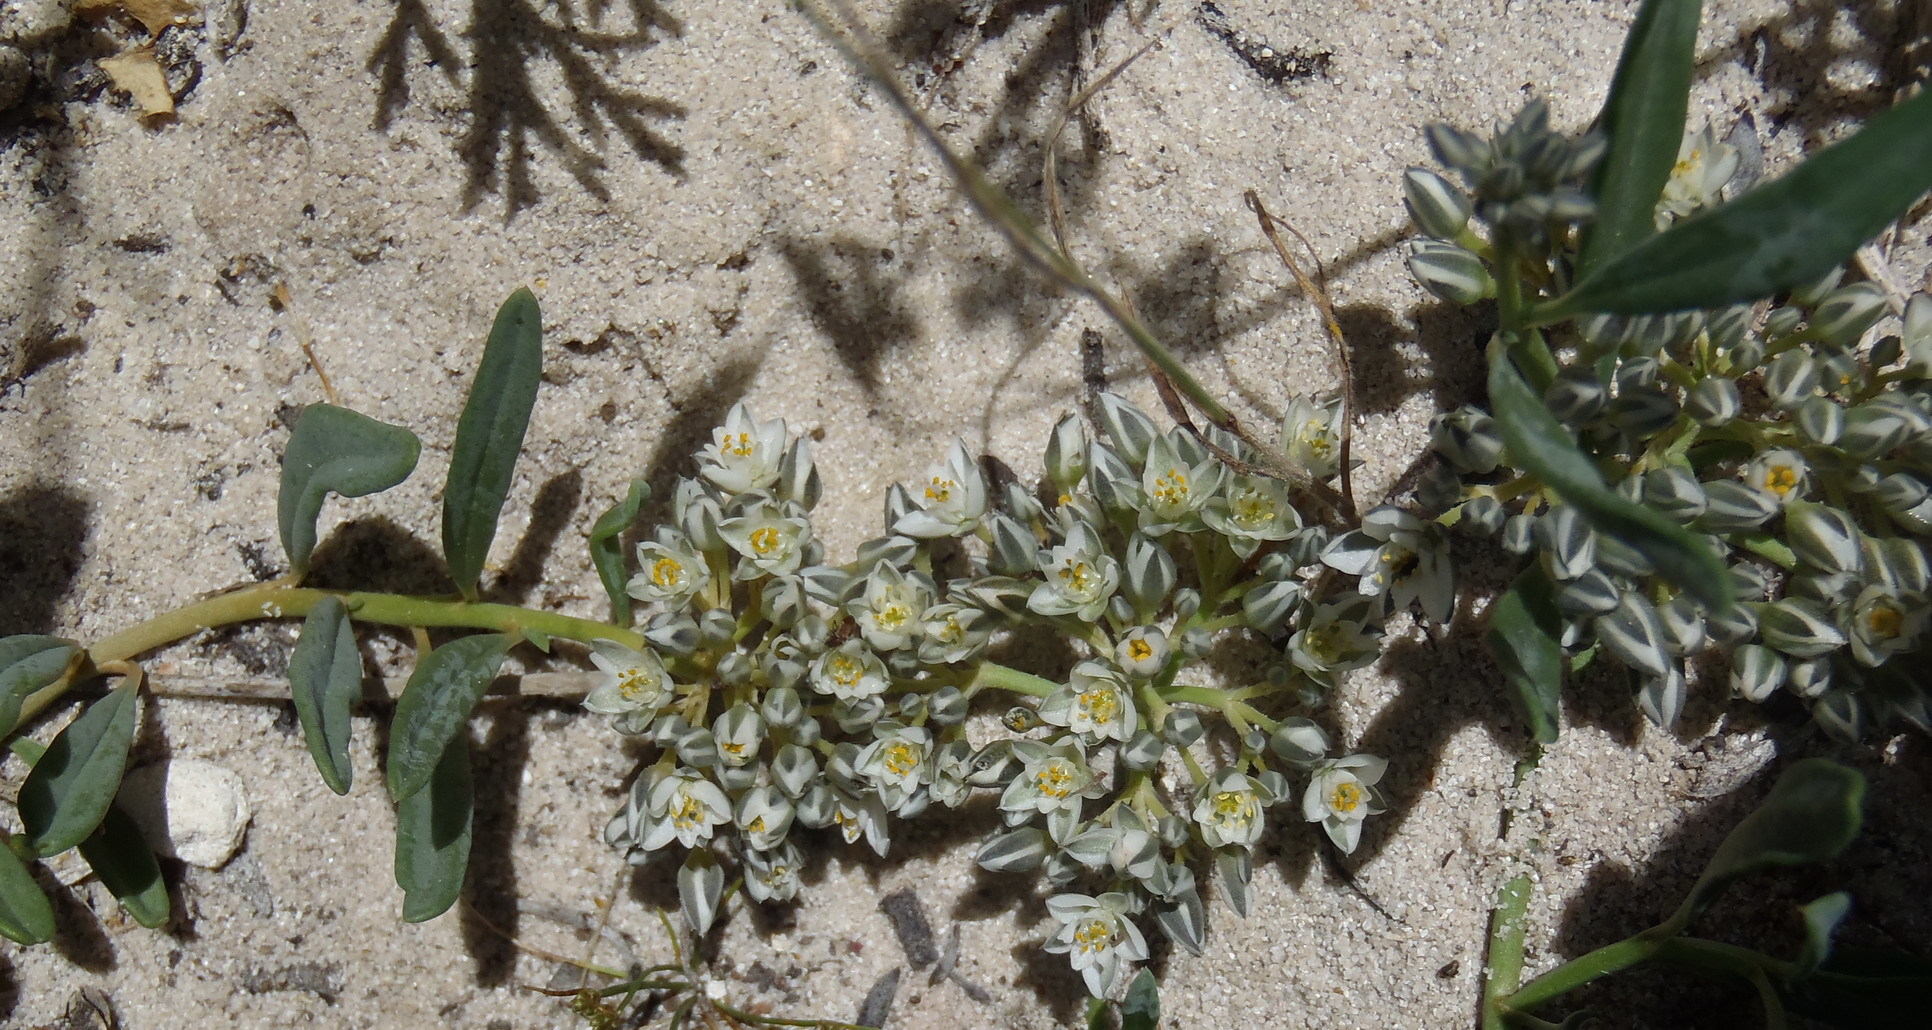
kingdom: Plantae
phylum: Tracheophyta
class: Magnoliopsida
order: Caryophyllales
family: Limeaceae
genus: Limeum
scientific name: Limeum africanum
